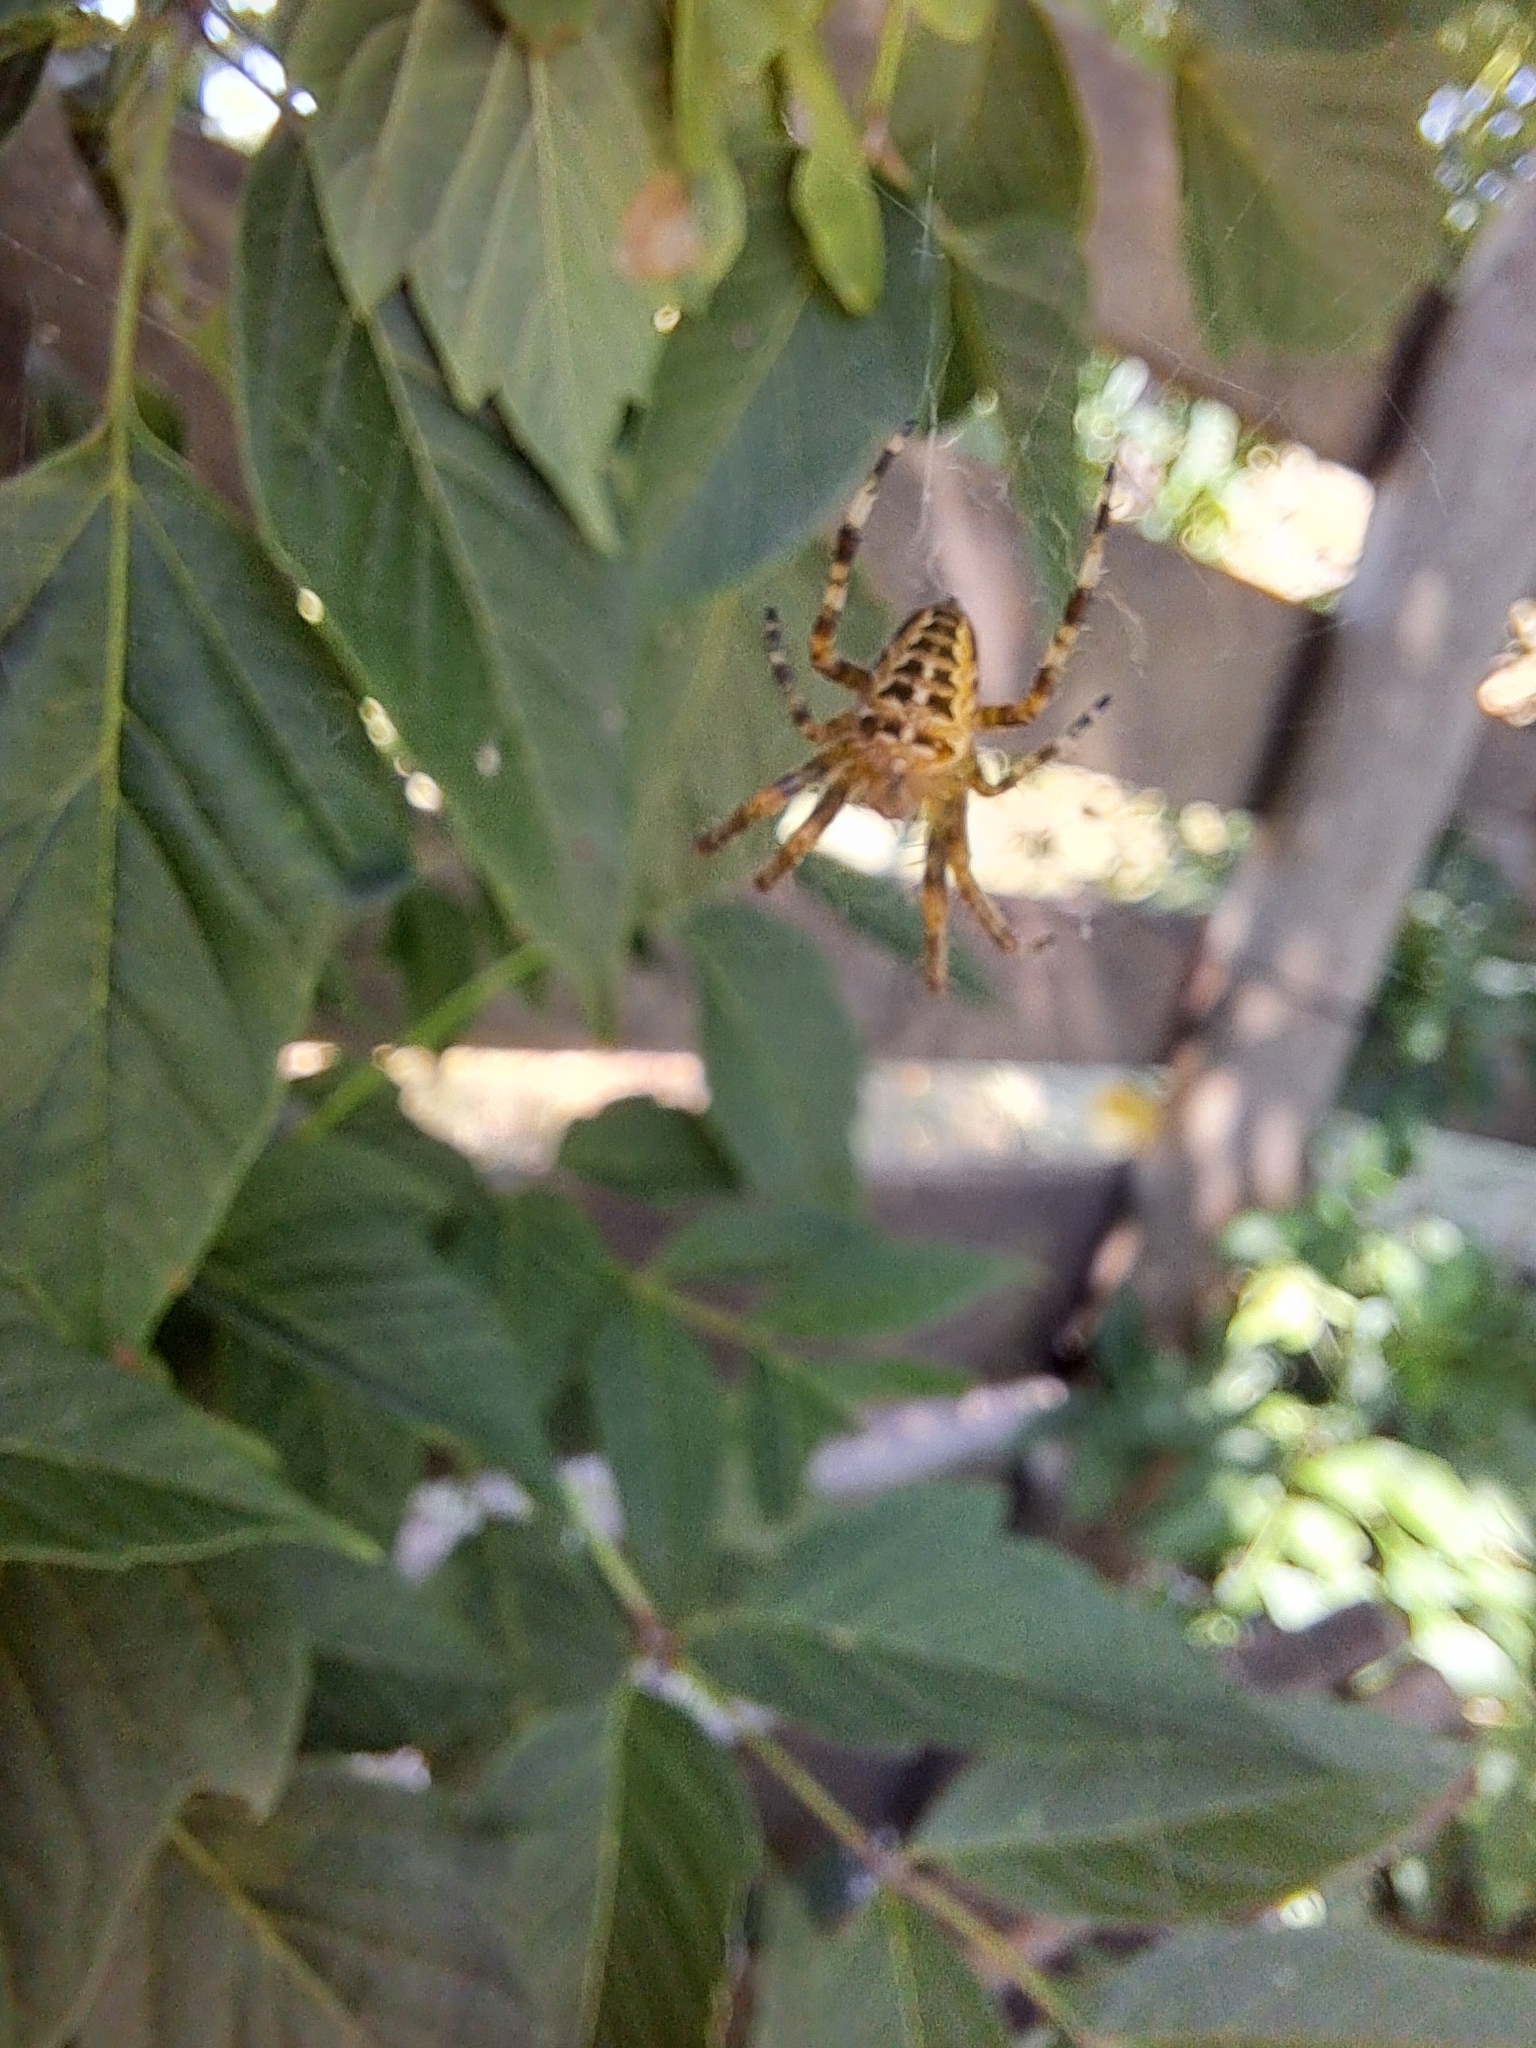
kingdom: Animalia
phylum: Arthropoda
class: Arachnida
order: Araneae
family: Araneidae
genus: Araneus
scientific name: Araneus diadematus
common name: Cross orbweaver
